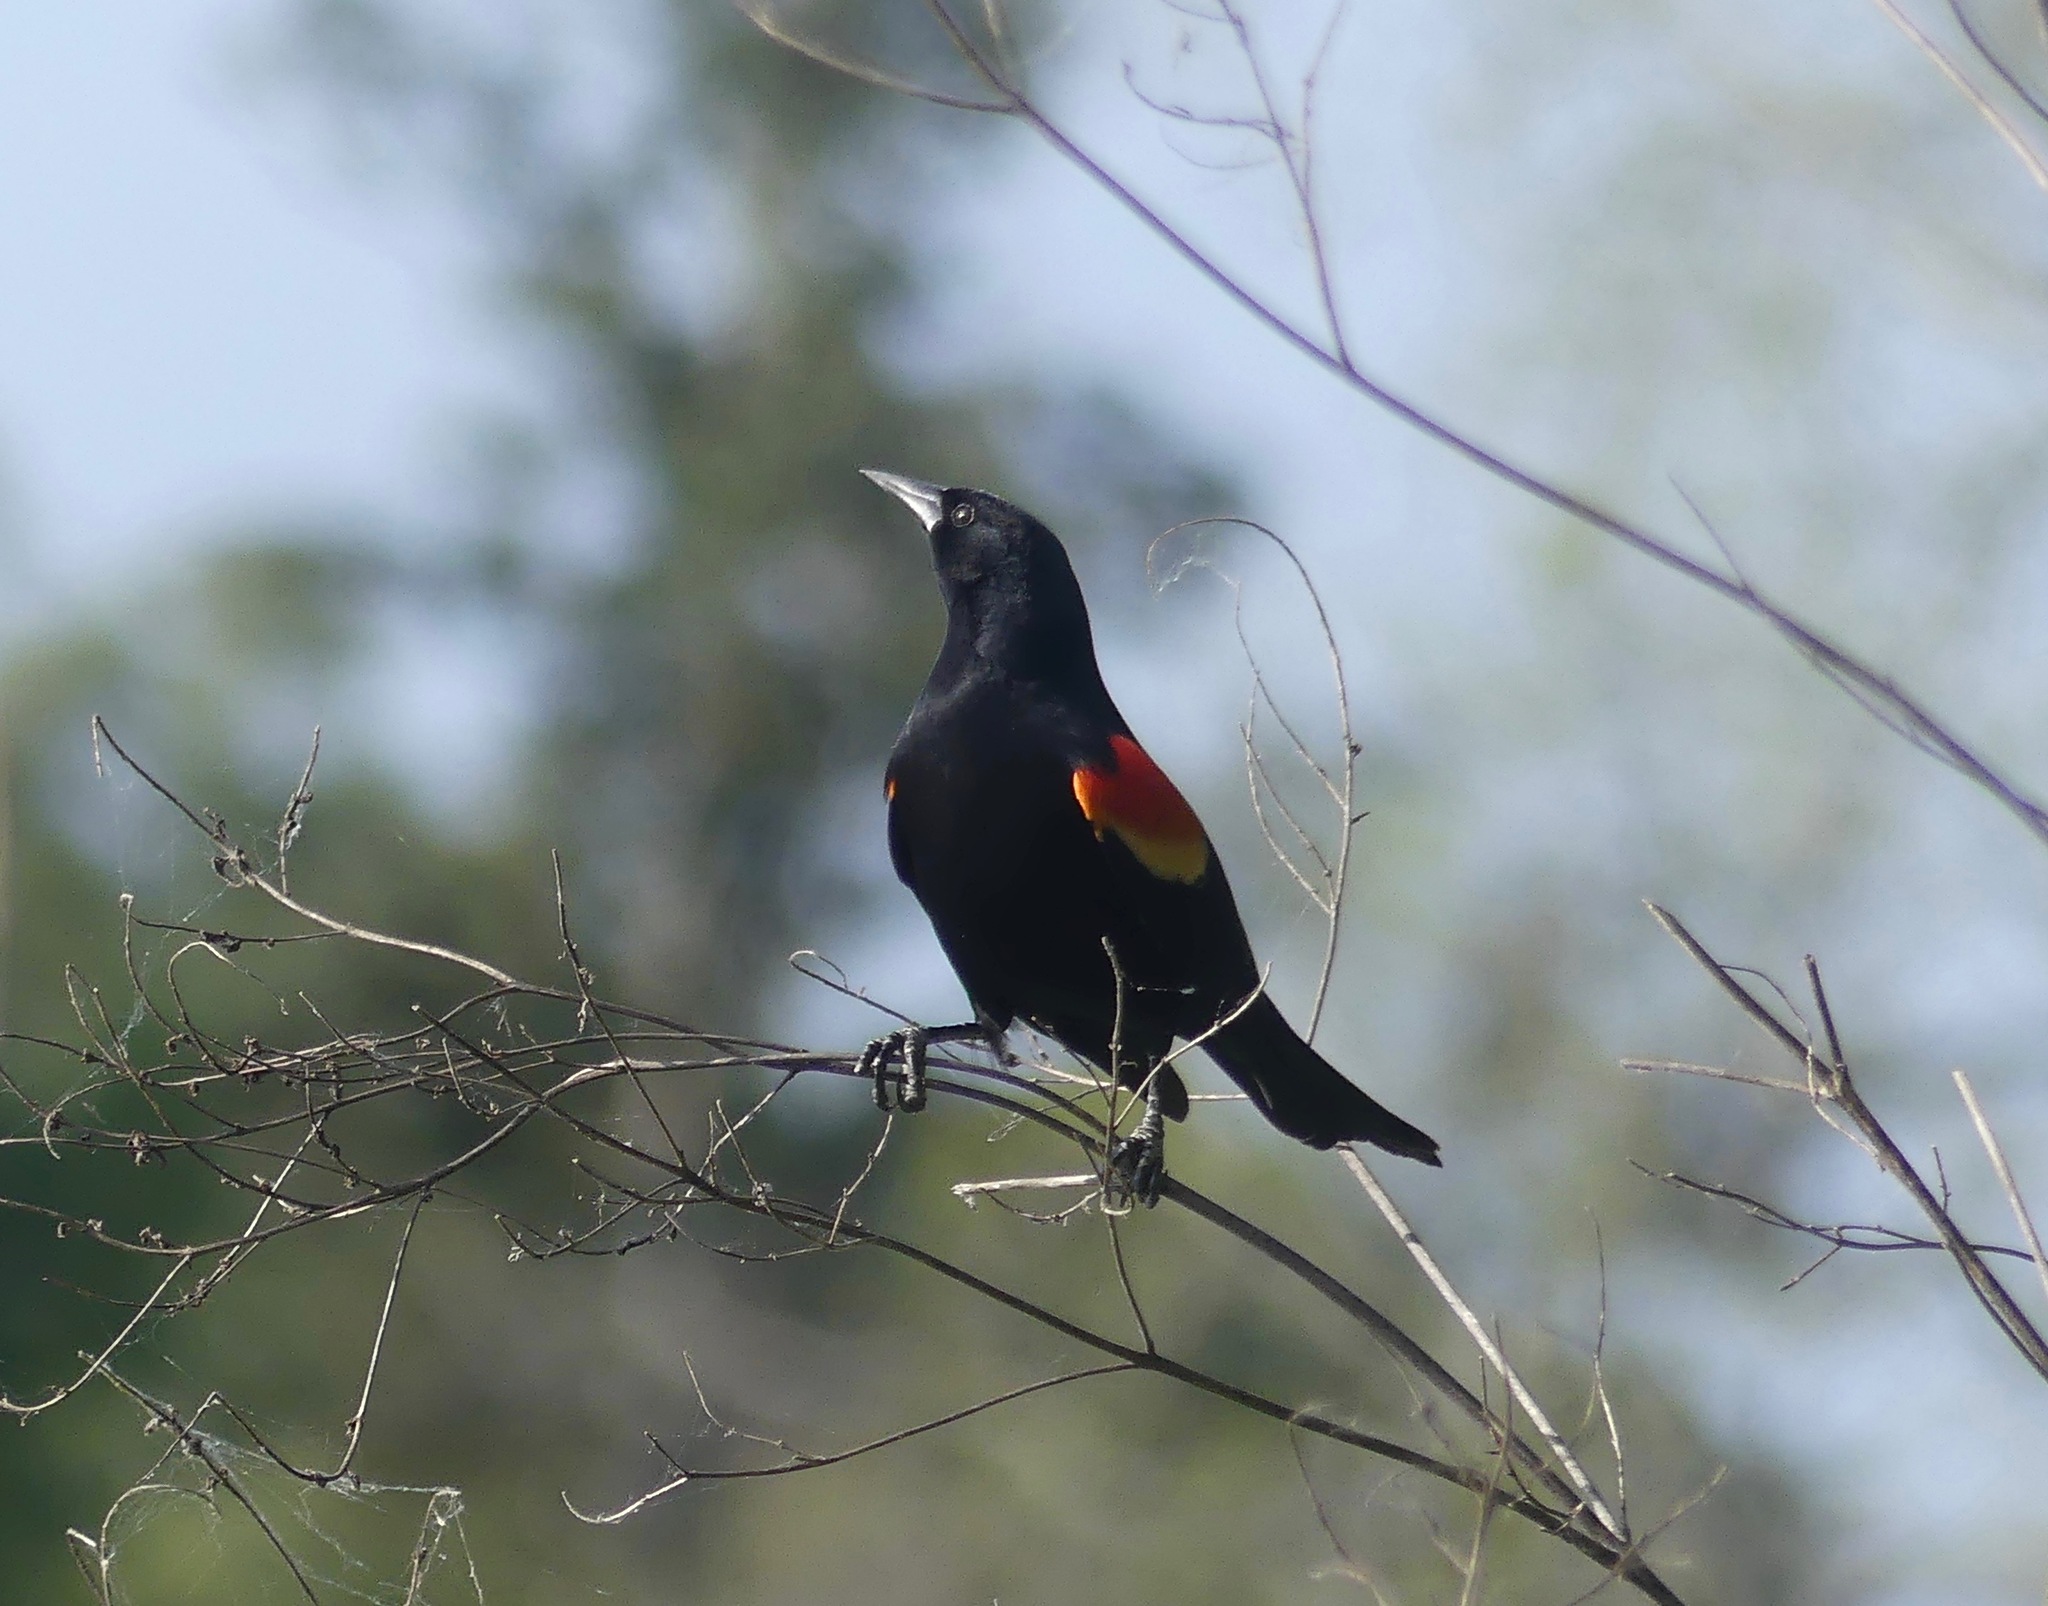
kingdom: Animalia
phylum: Chordata
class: Aves
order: Passeriformes
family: Icteridae
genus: Agelaius
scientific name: Agelaius phoeniceus
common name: Red-winged blackbird
